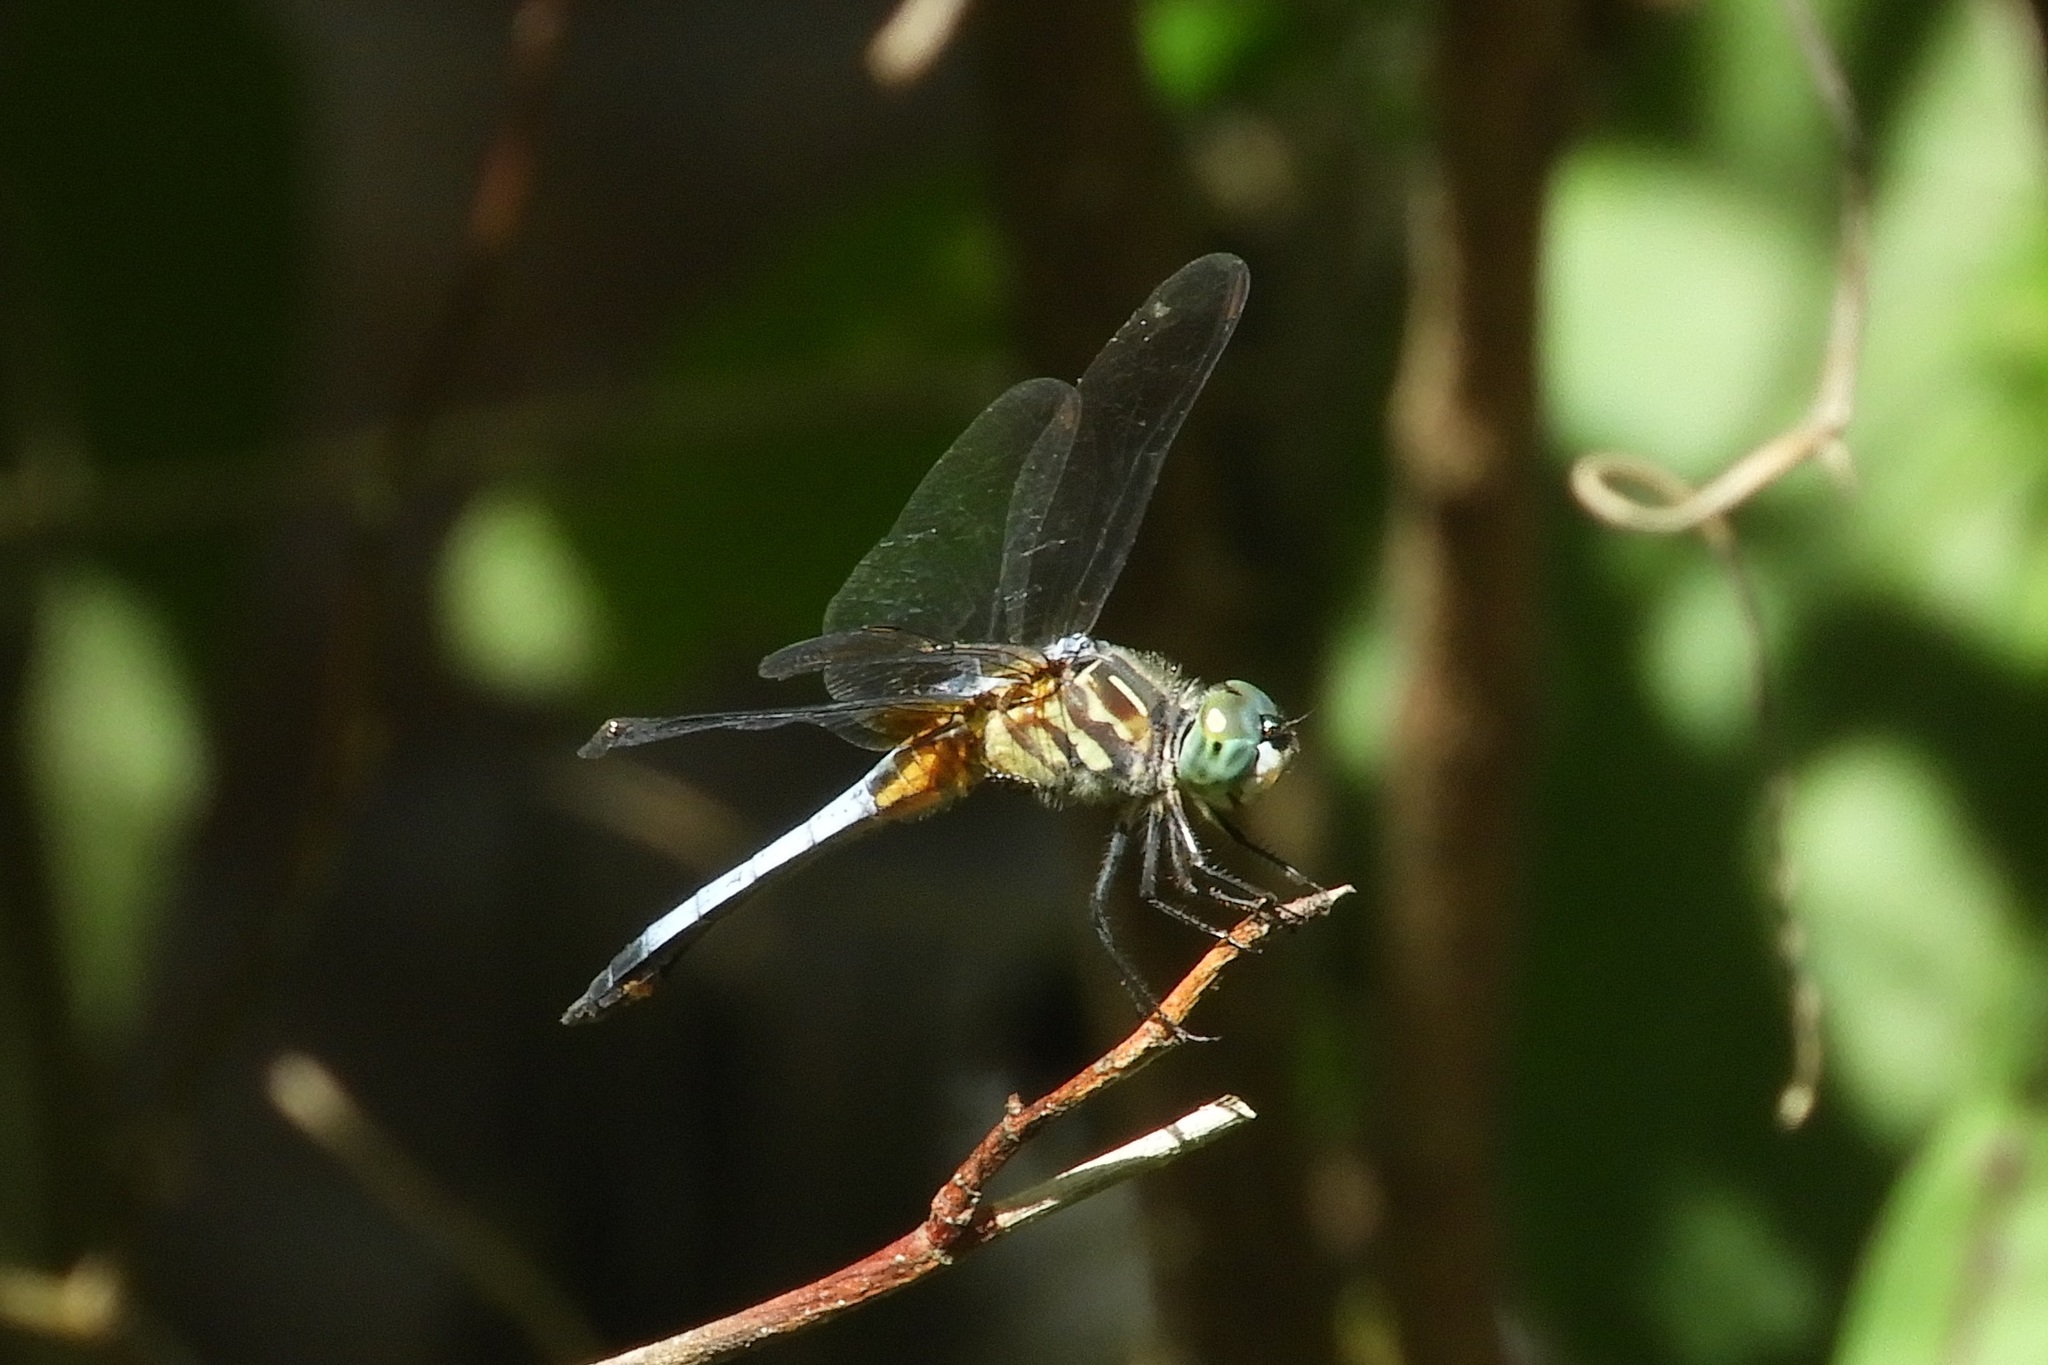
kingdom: Animalia
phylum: Arthropoda
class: Insecta
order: Odonata
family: Libellulidae
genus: Pachydiplax
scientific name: Pachydiplax longipennis
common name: Blue dasher
